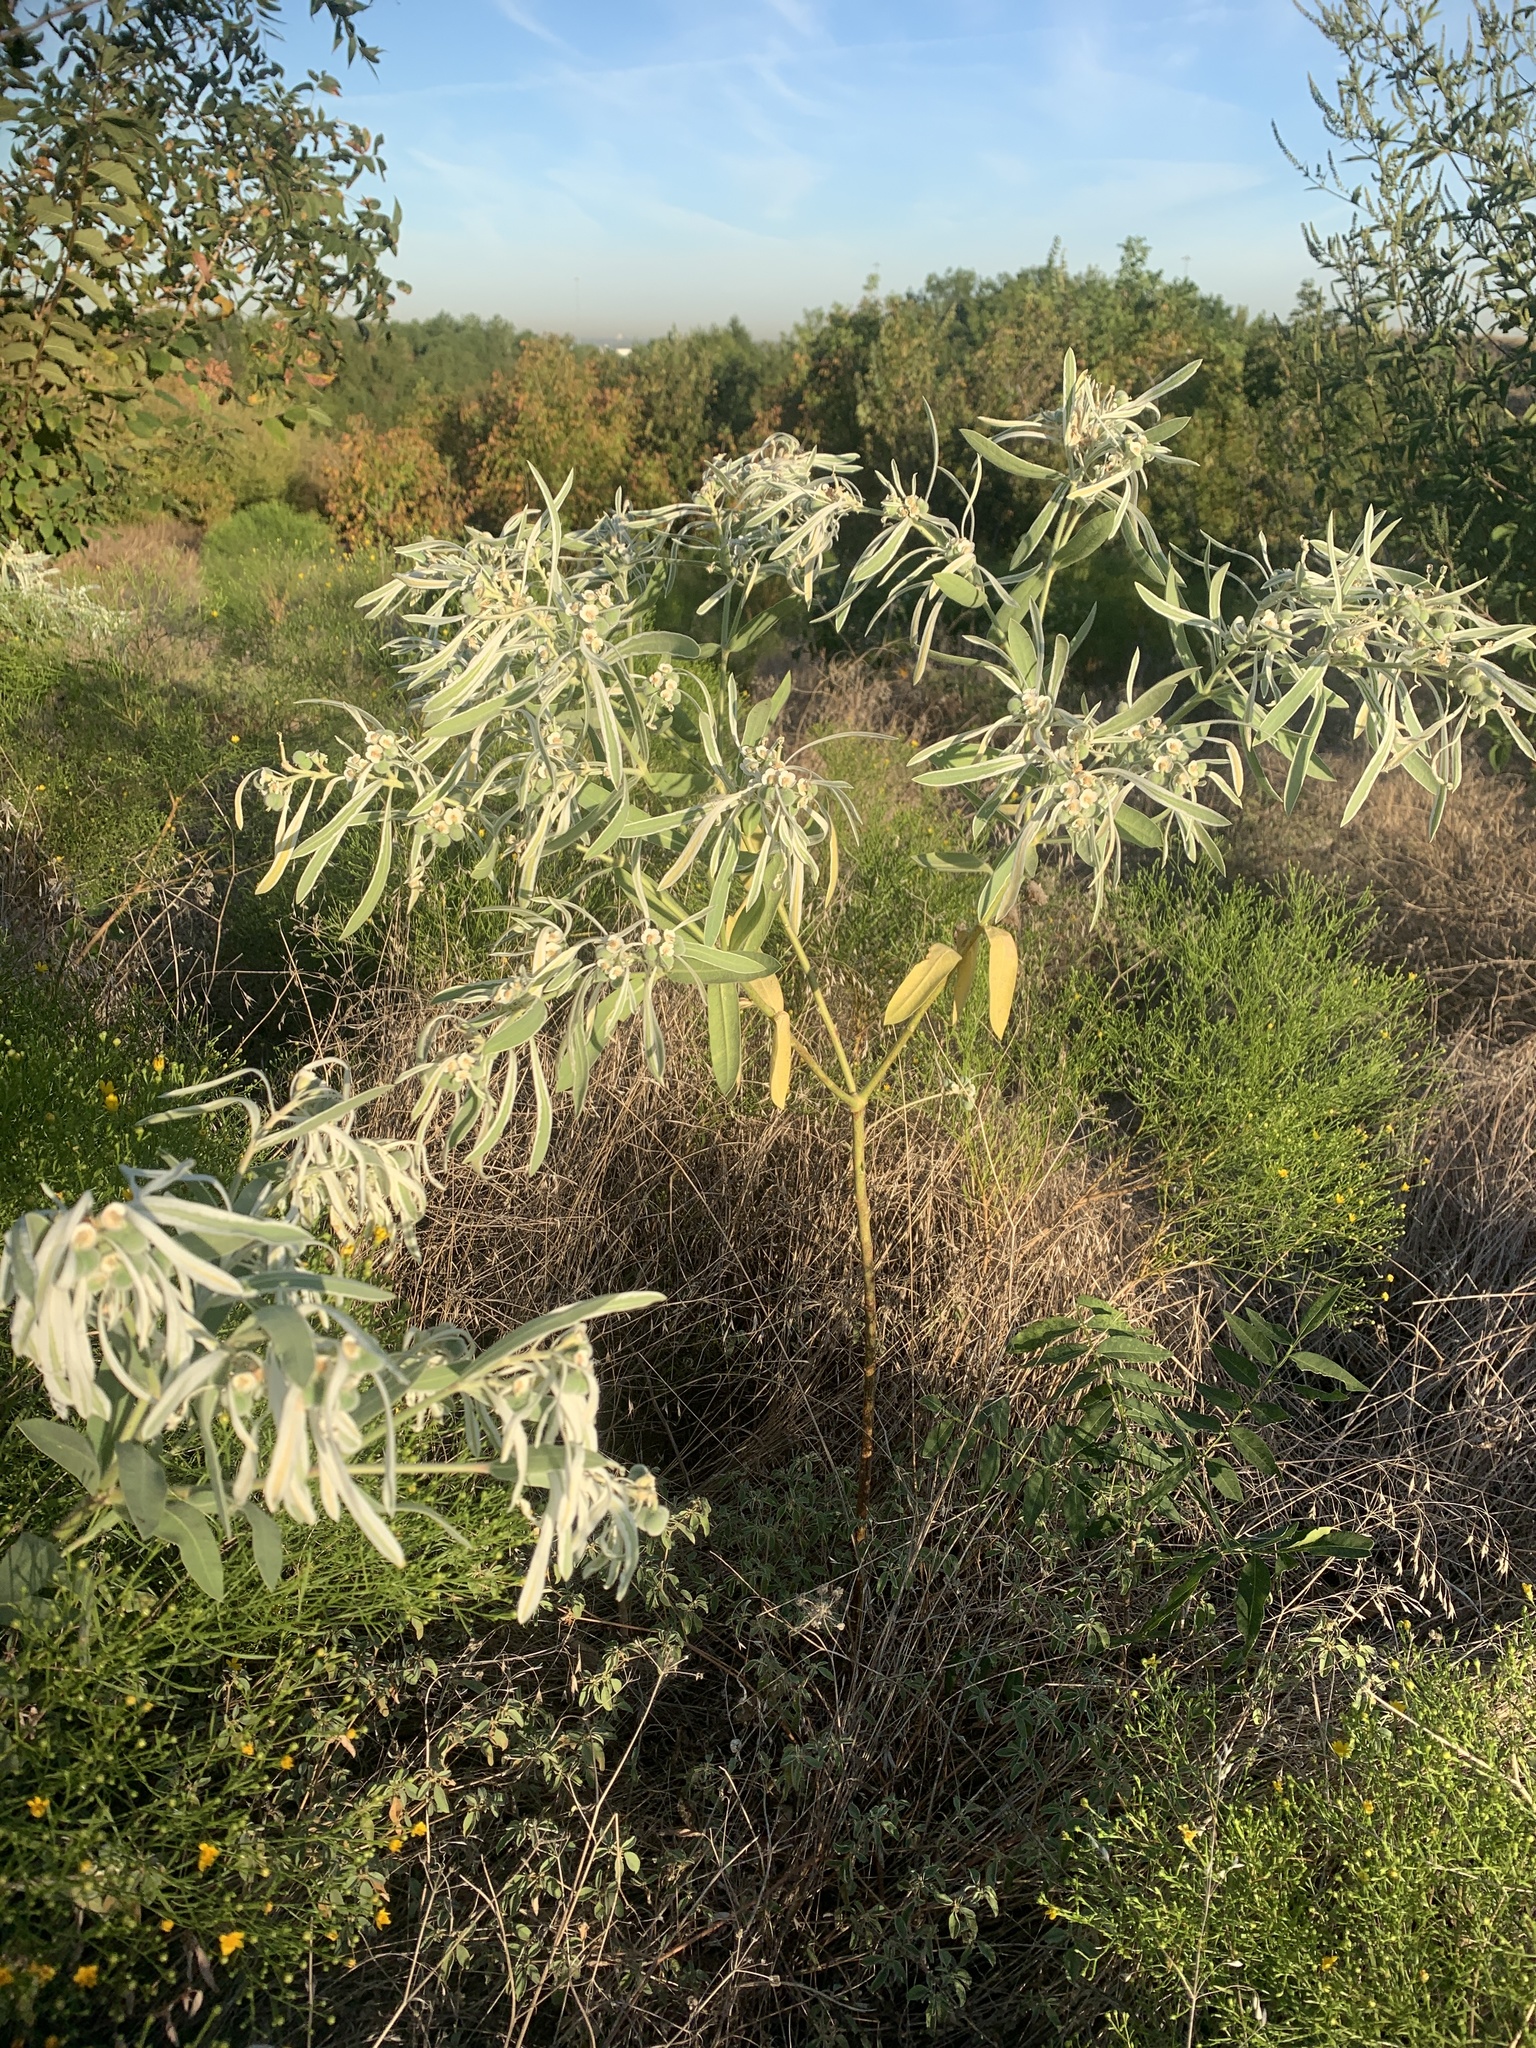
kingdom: Plantae
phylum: Tracheophyta
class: Magnoliopsida
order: Malpighiales
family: Euphorbiaceae
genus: Euphorbia
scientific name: Euphorbia bicolor
